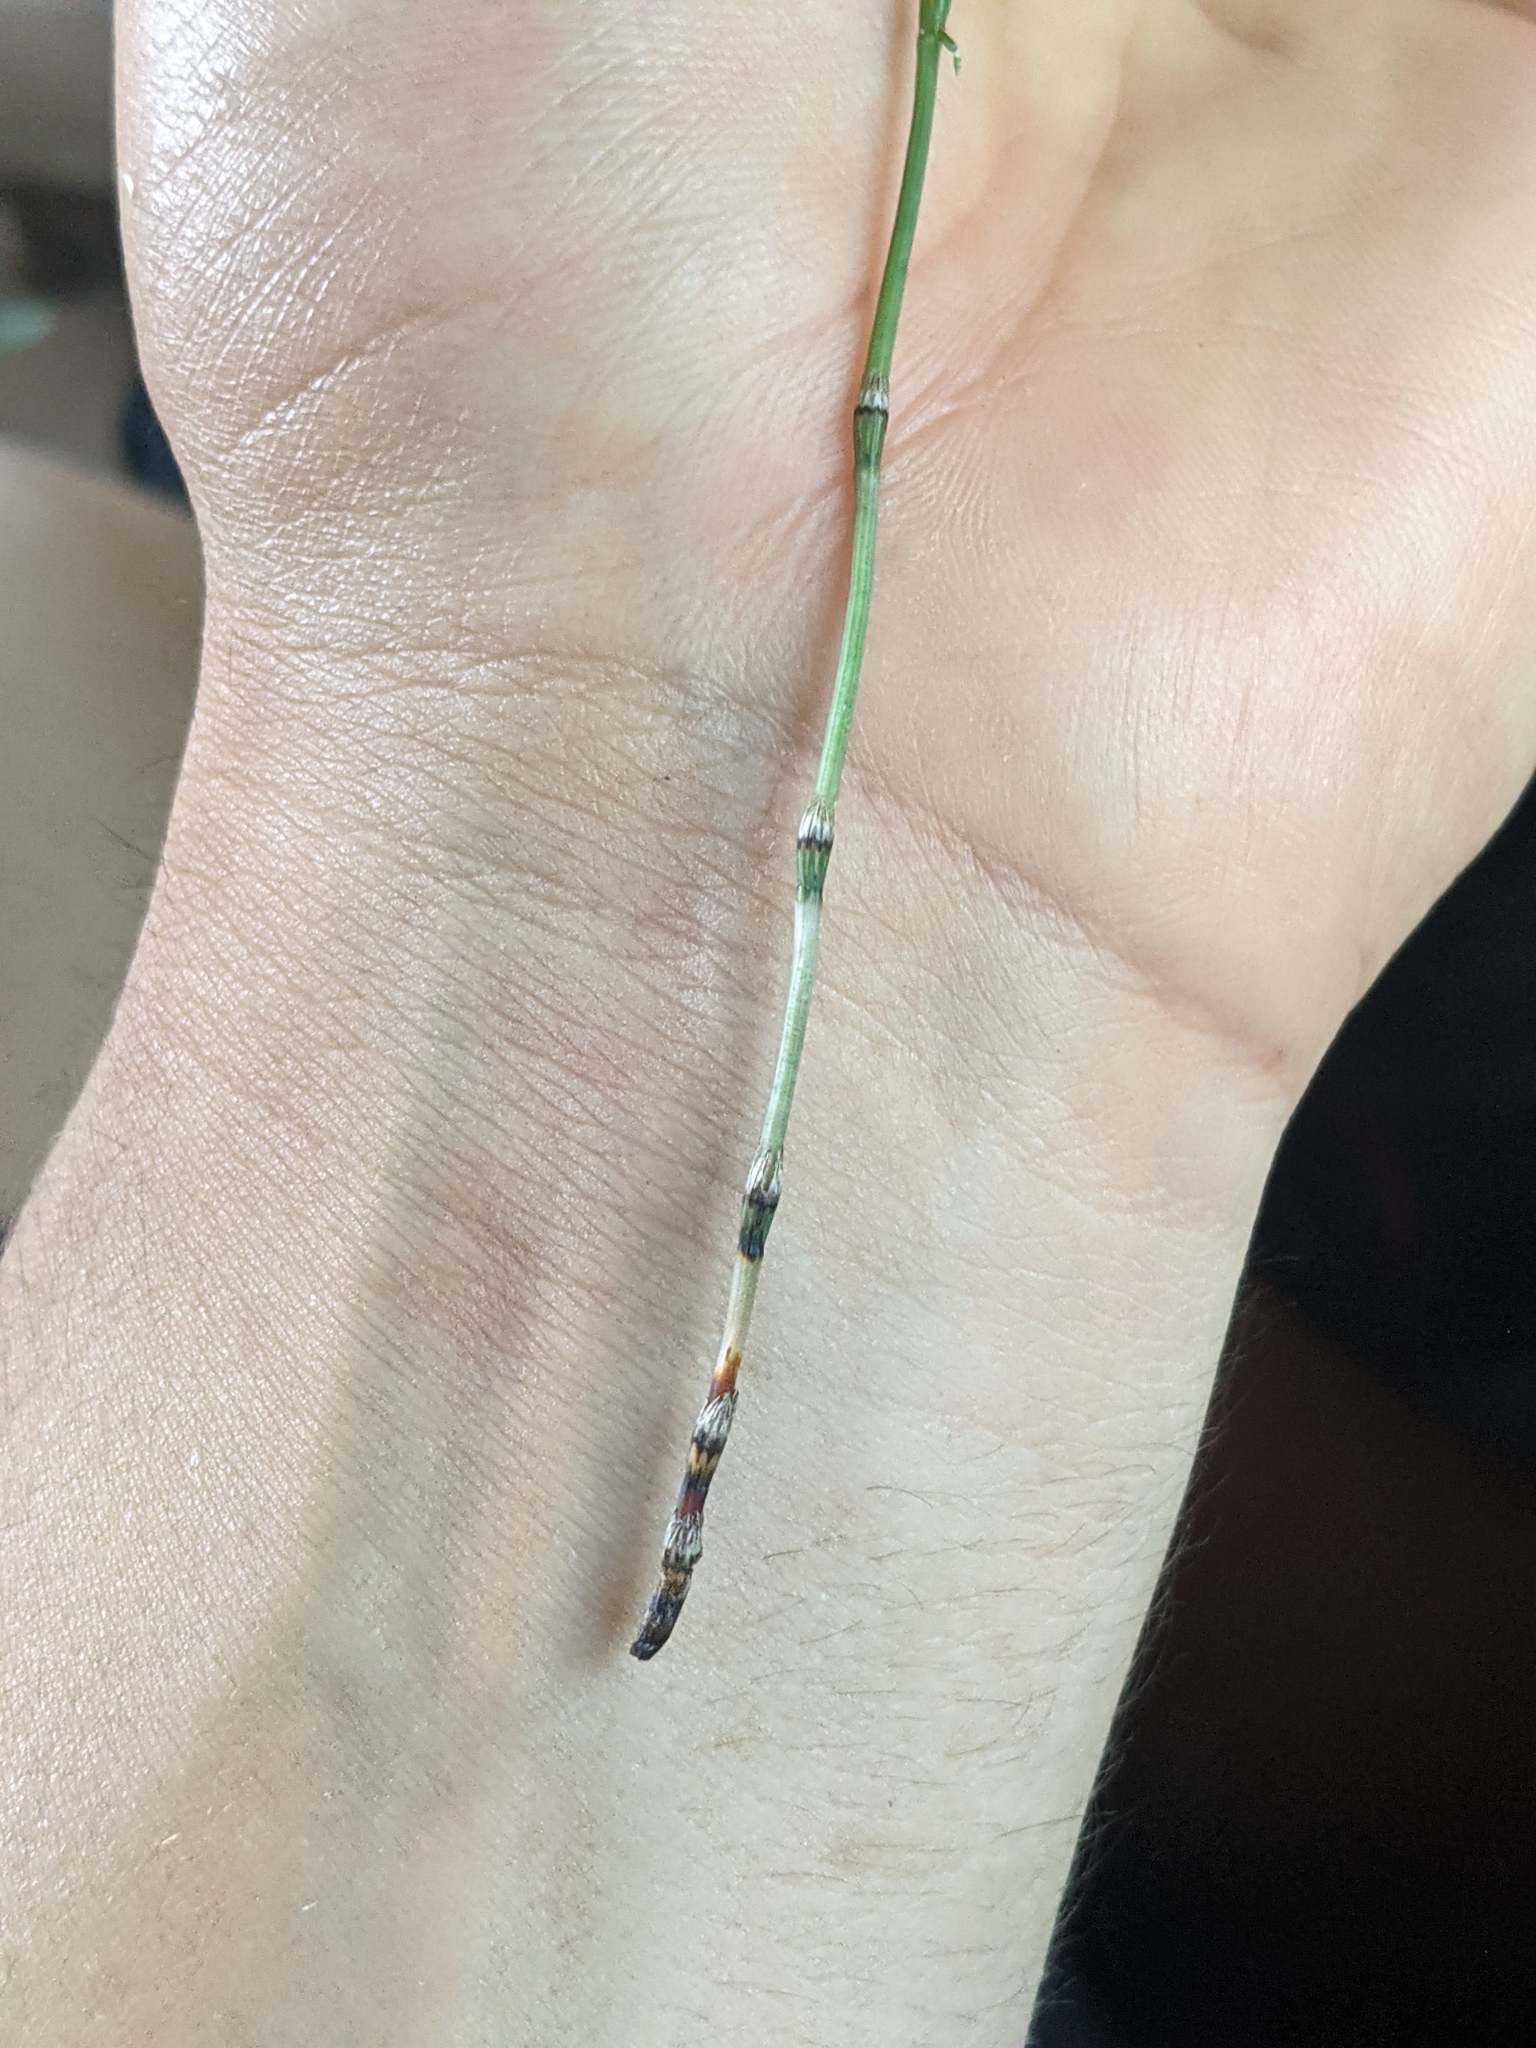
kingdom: Plantae
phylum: Tracheophyta
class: Polypodiopsida
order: Equisetales
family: Equisetaceae
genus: Equisetum
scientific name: Equisetum pratense
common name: Meadow horsetail
